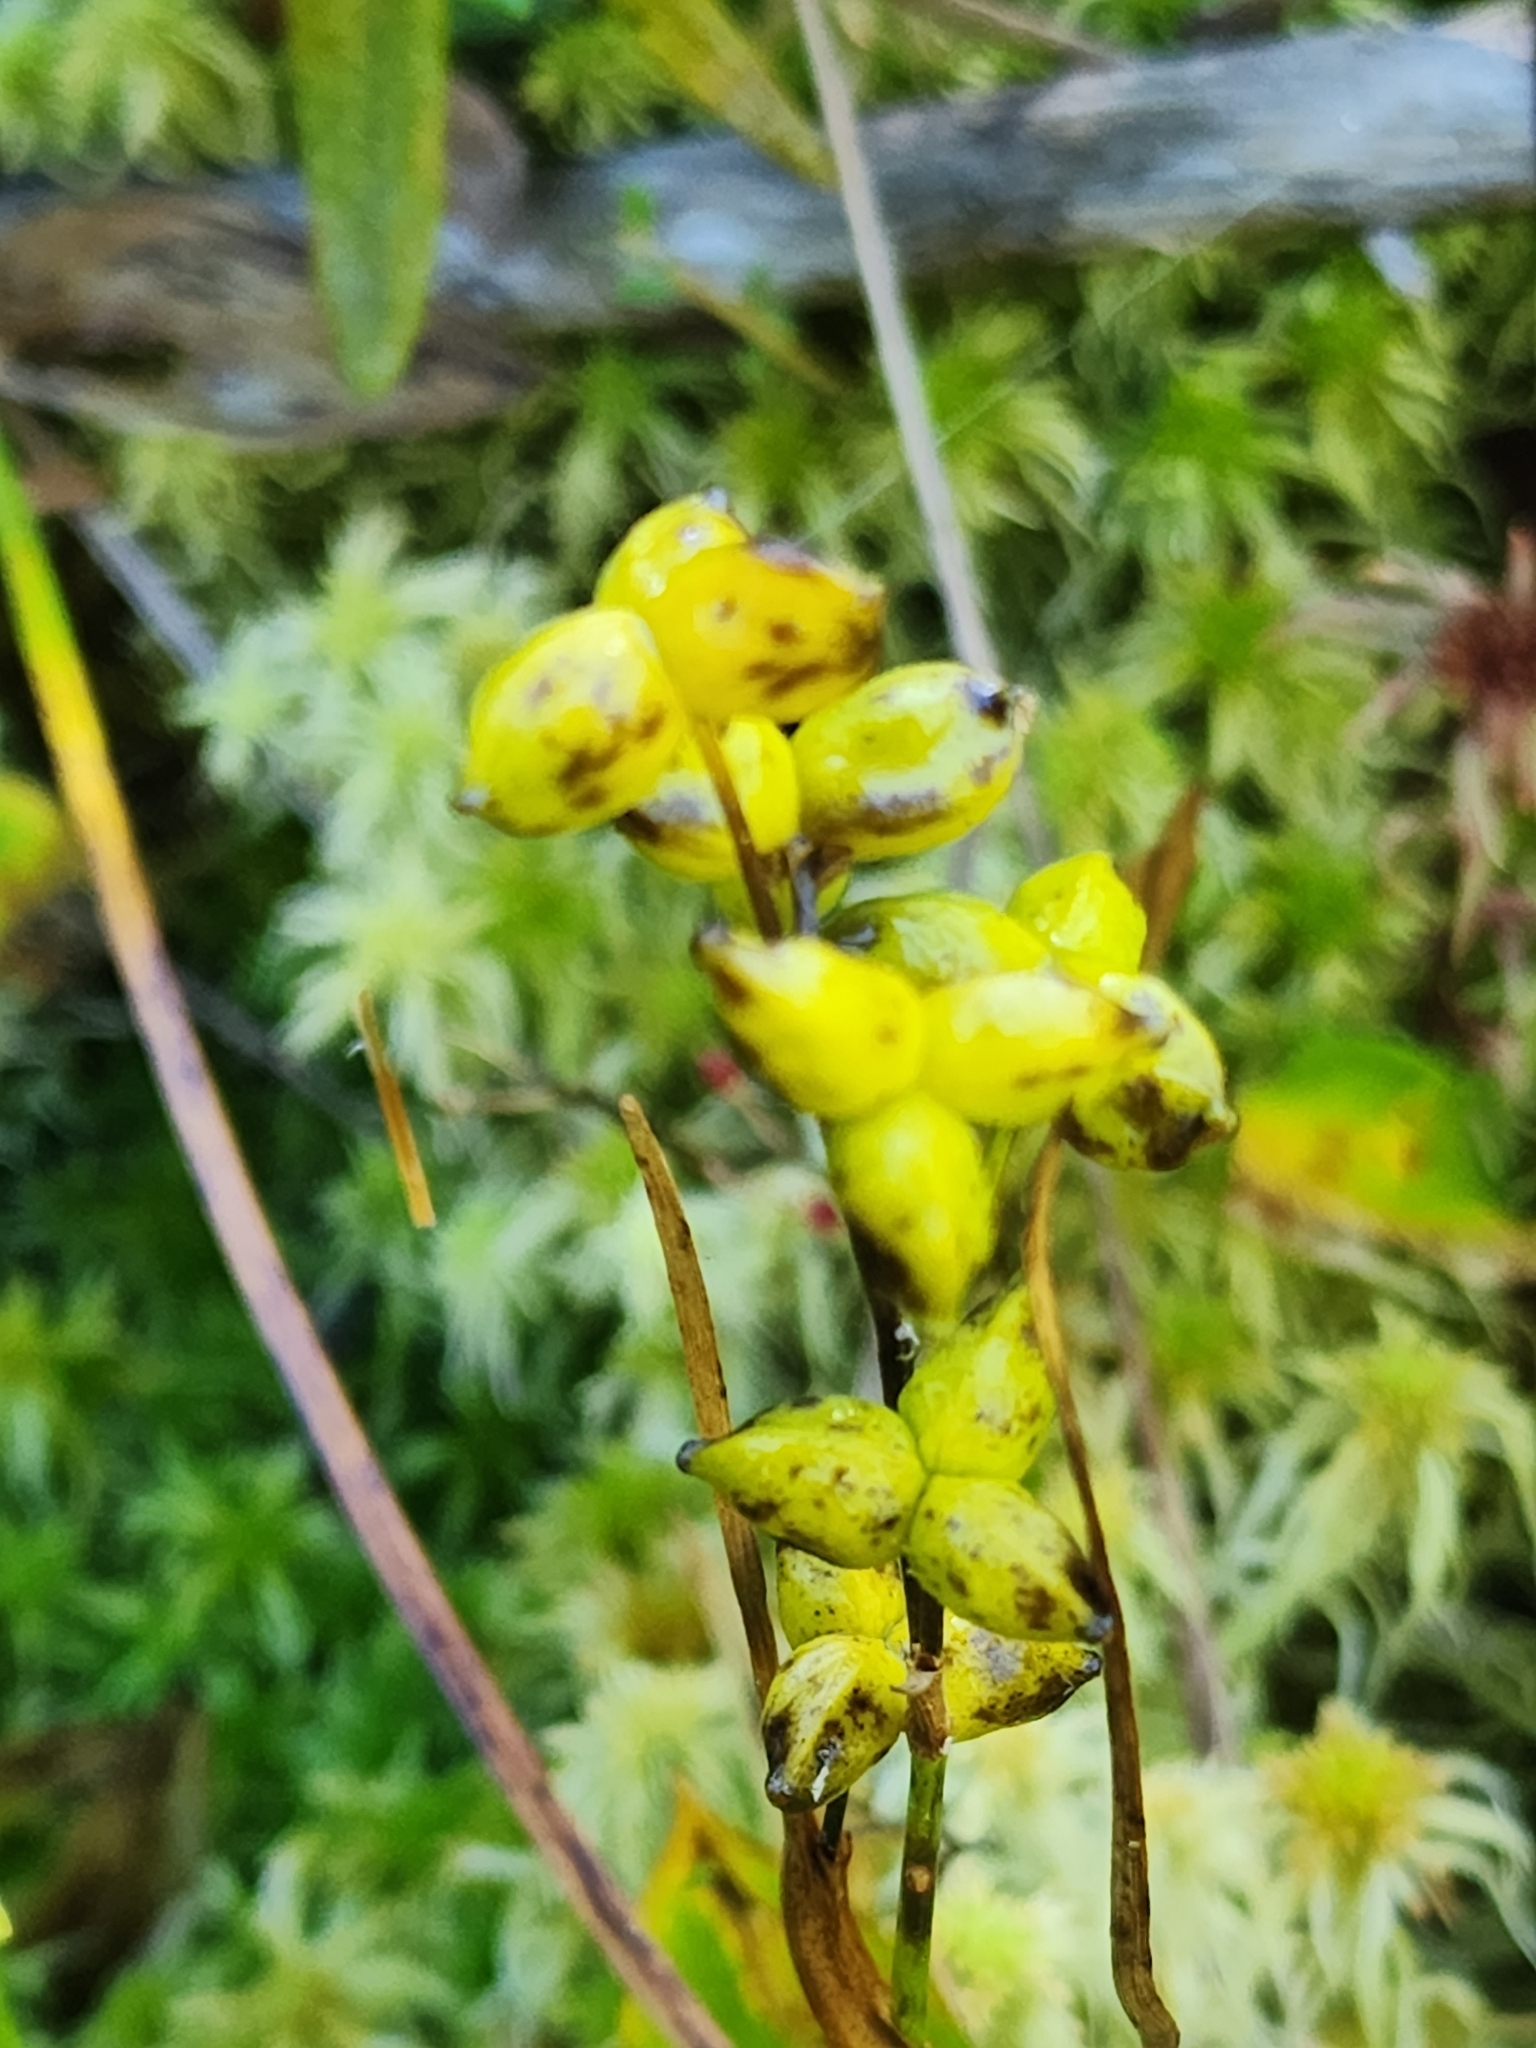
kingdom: Plantae
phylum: Tracheophyta
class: Liliopsida
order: Alismatales
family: Scheuchzeriaceae
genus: Scheuchzeria
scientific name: Scheuchzeria palustris
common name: Rannoch-rush
